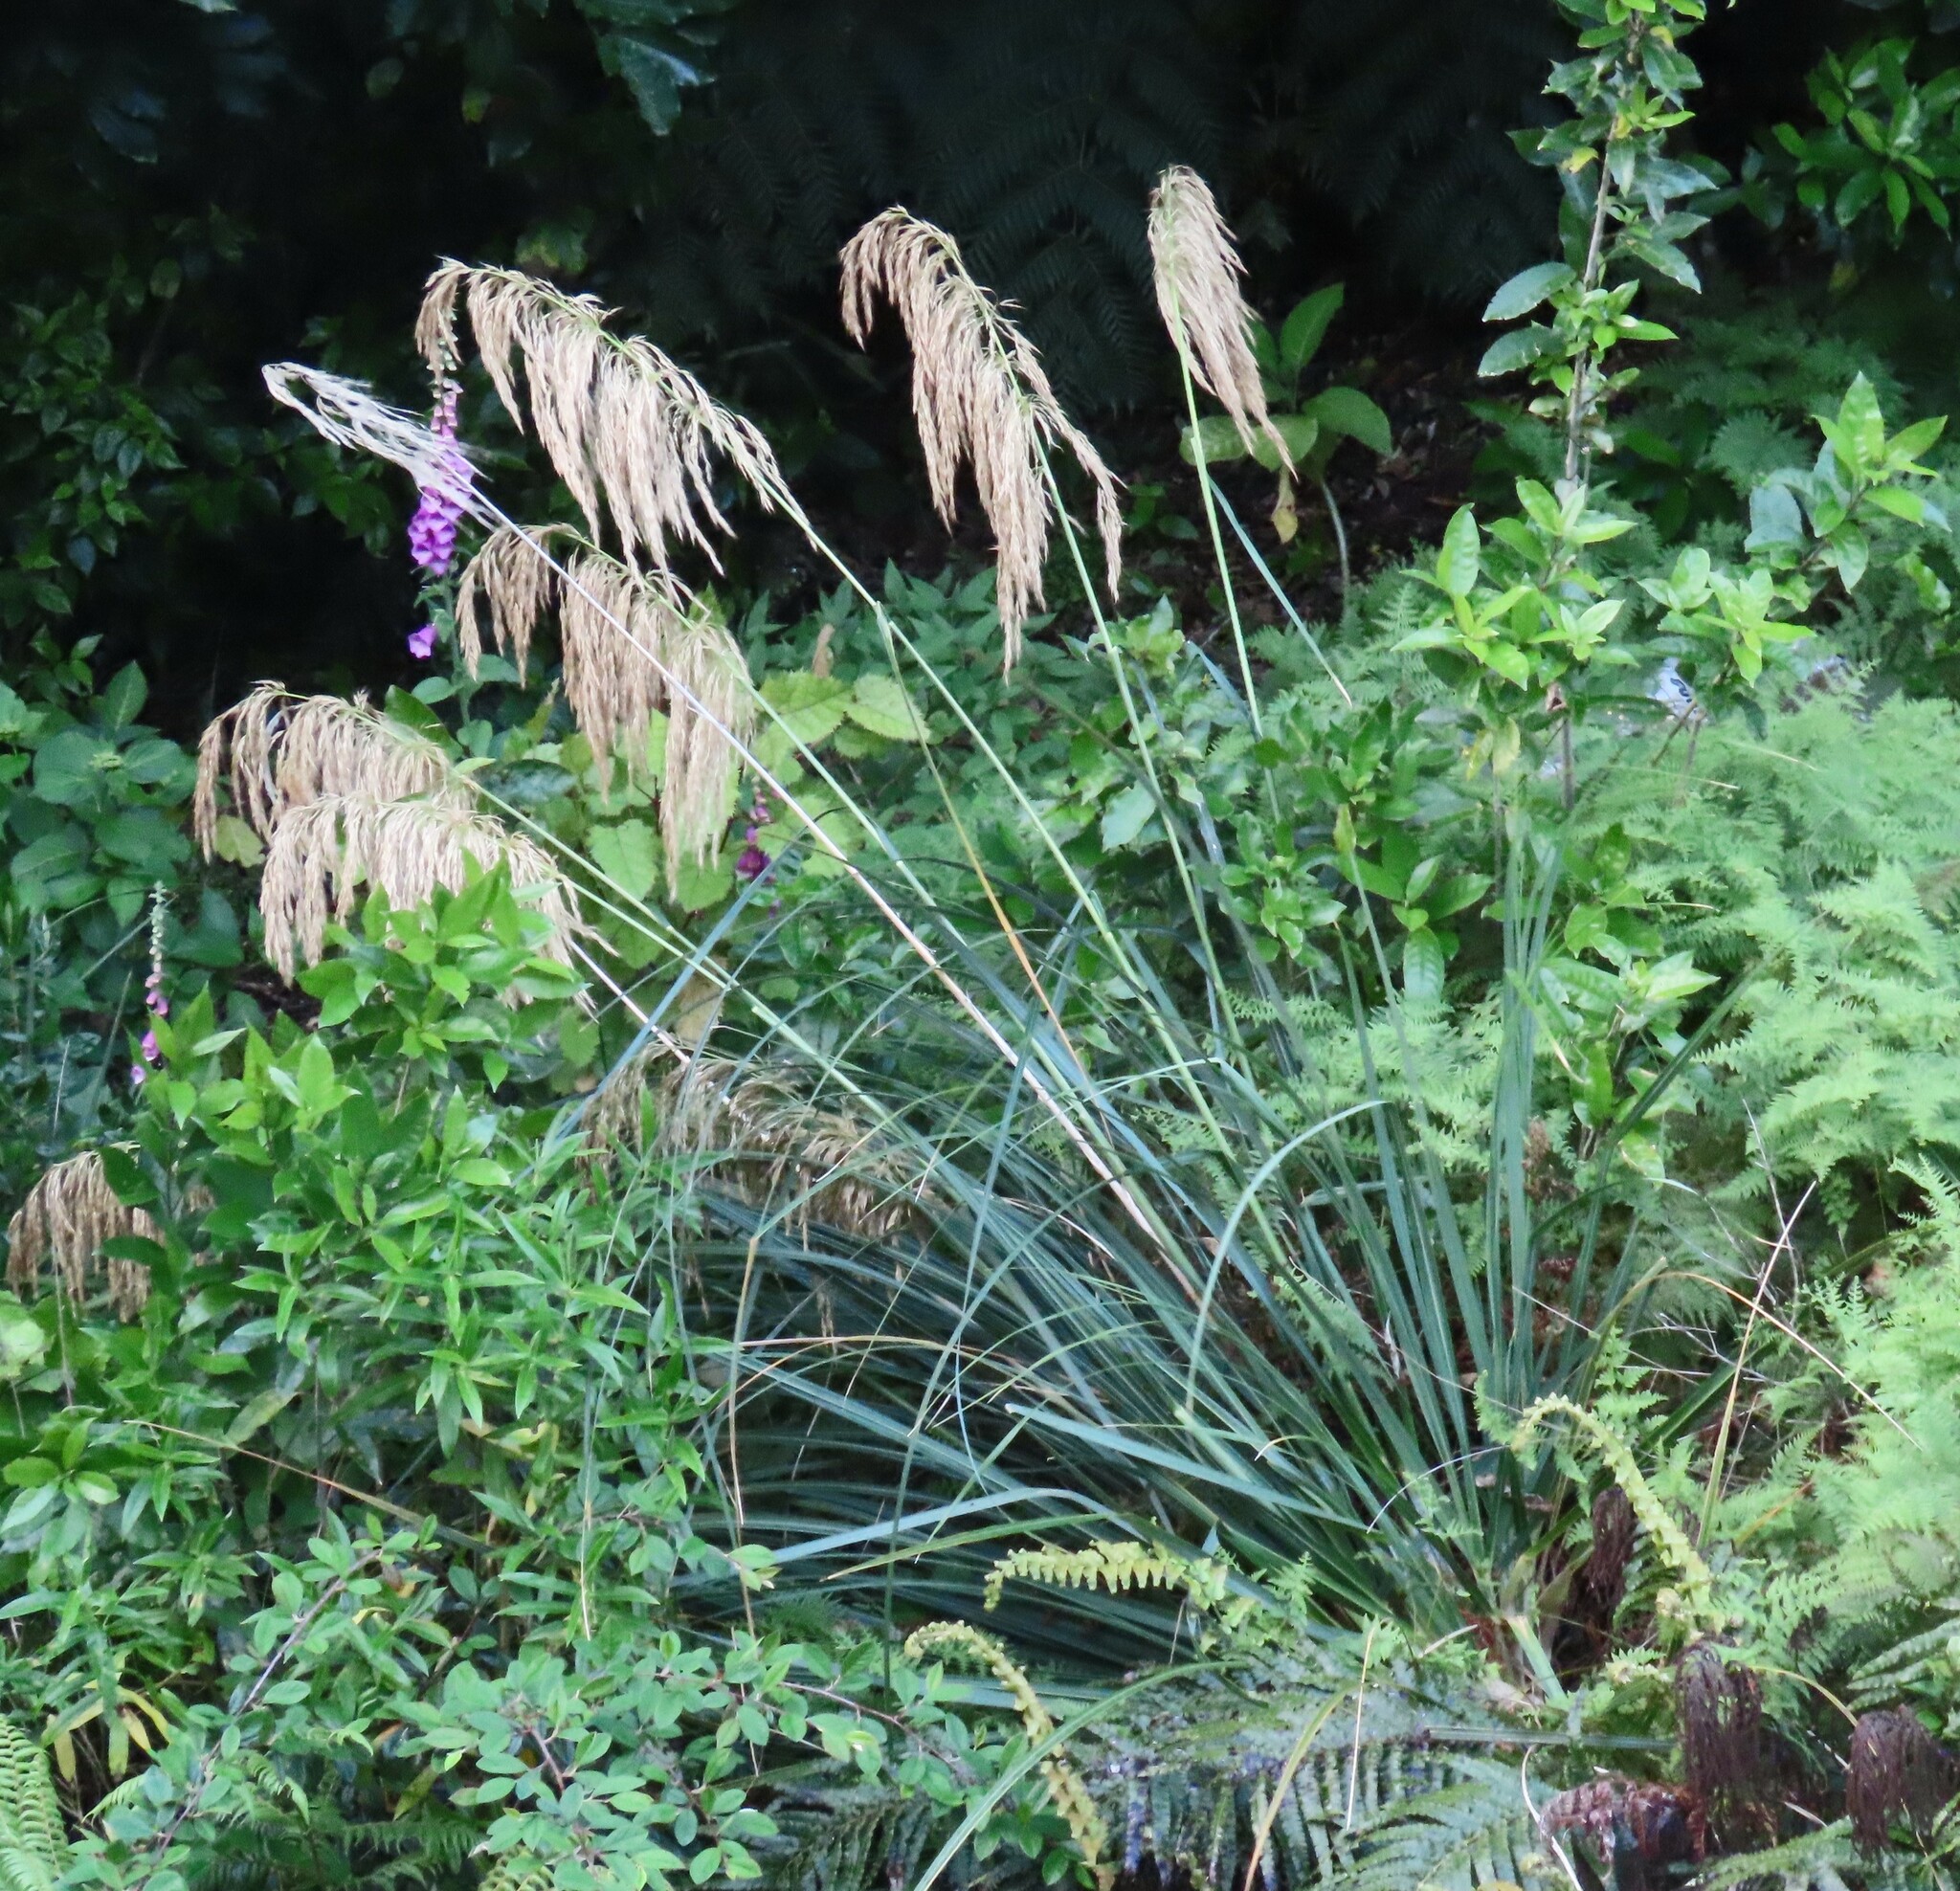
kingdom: Plantae
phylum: Tracheophyta
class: Liliopsida
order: Poales
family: Poaceae
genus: Austroderia
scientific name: Austroderia fulvida
